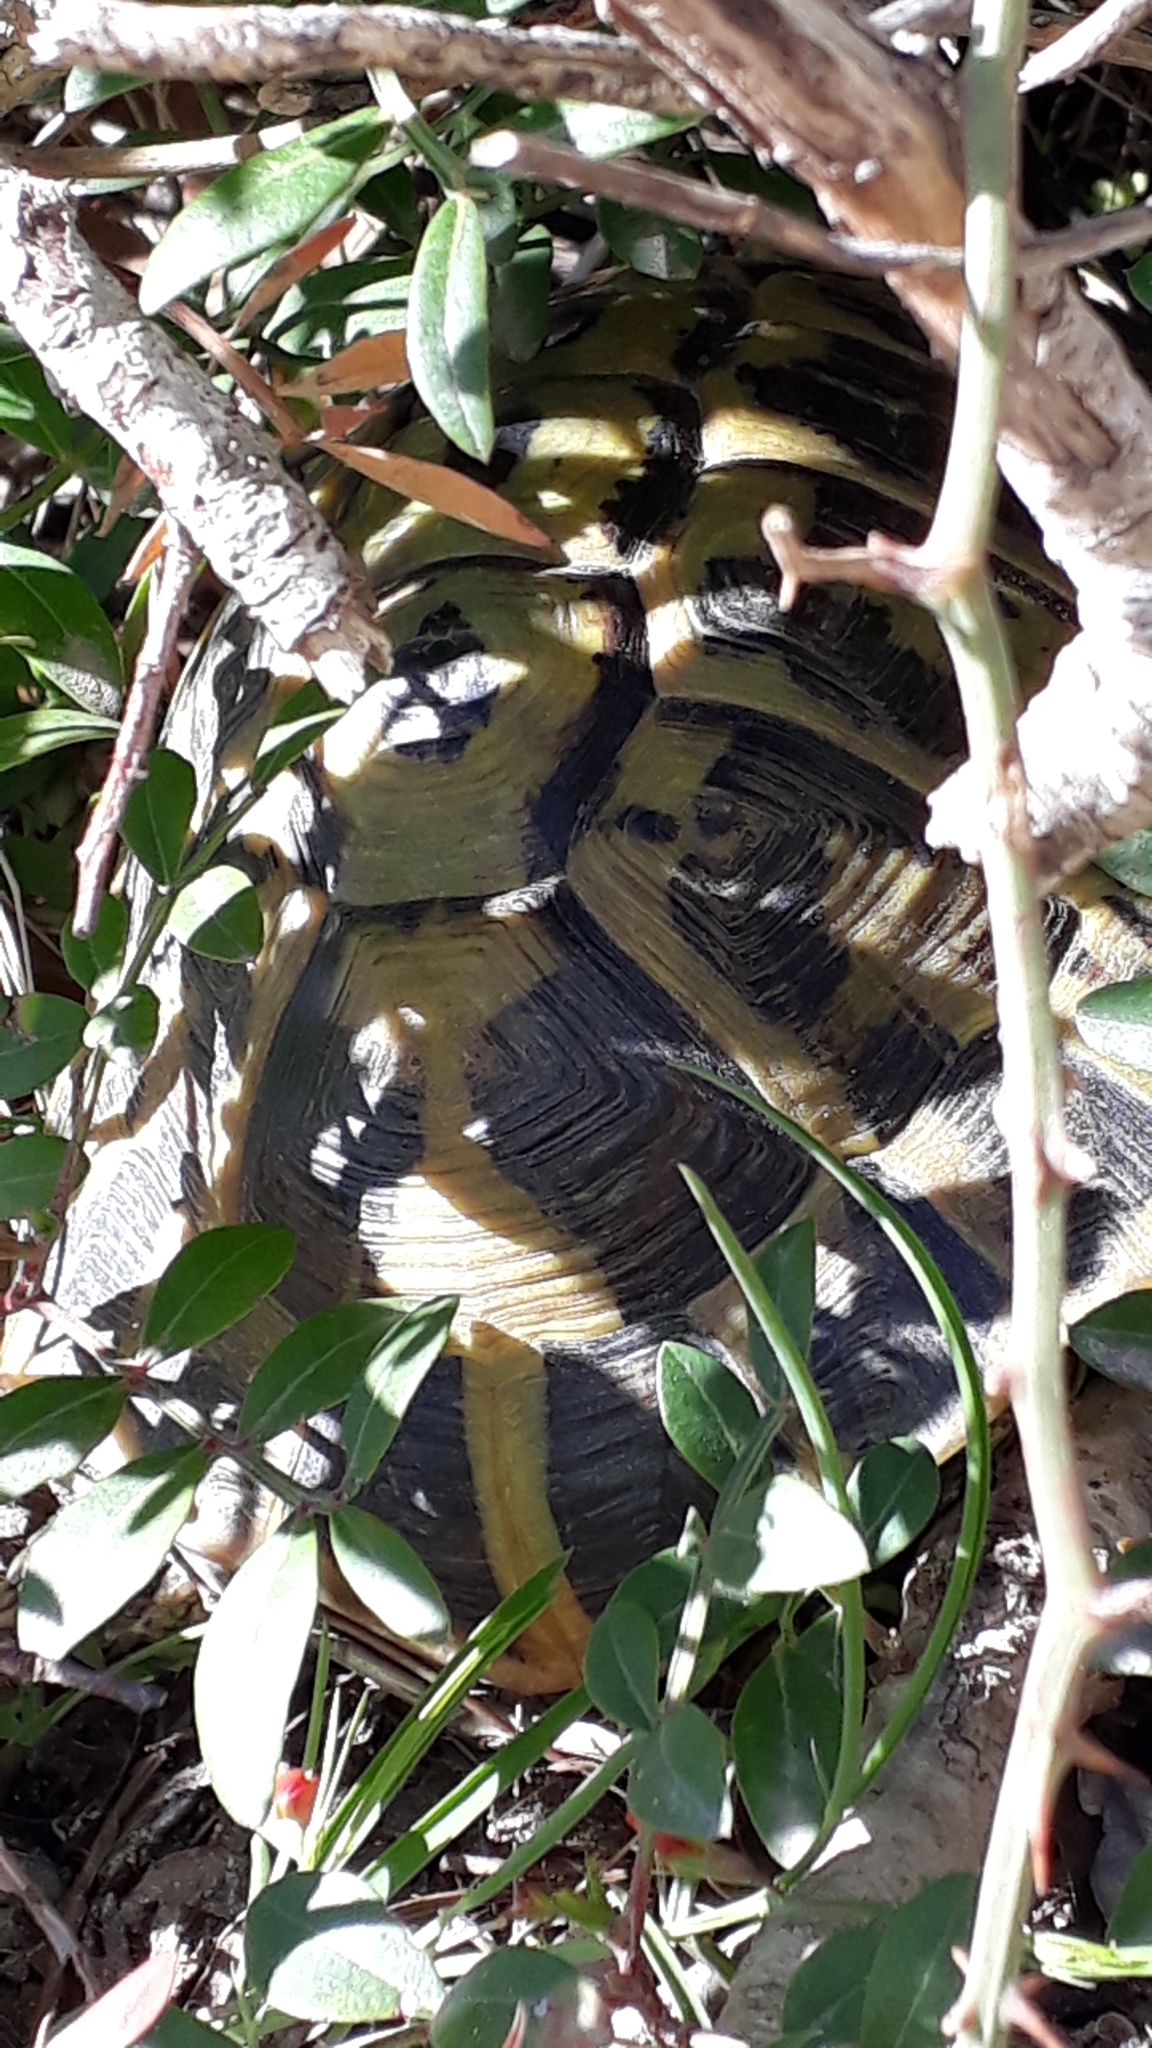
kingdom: Animalia
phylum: Chordata
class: Testudines
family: Testudinidae
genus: Testudo
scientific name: Testudo hermanni
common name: Hermann's tortoise
